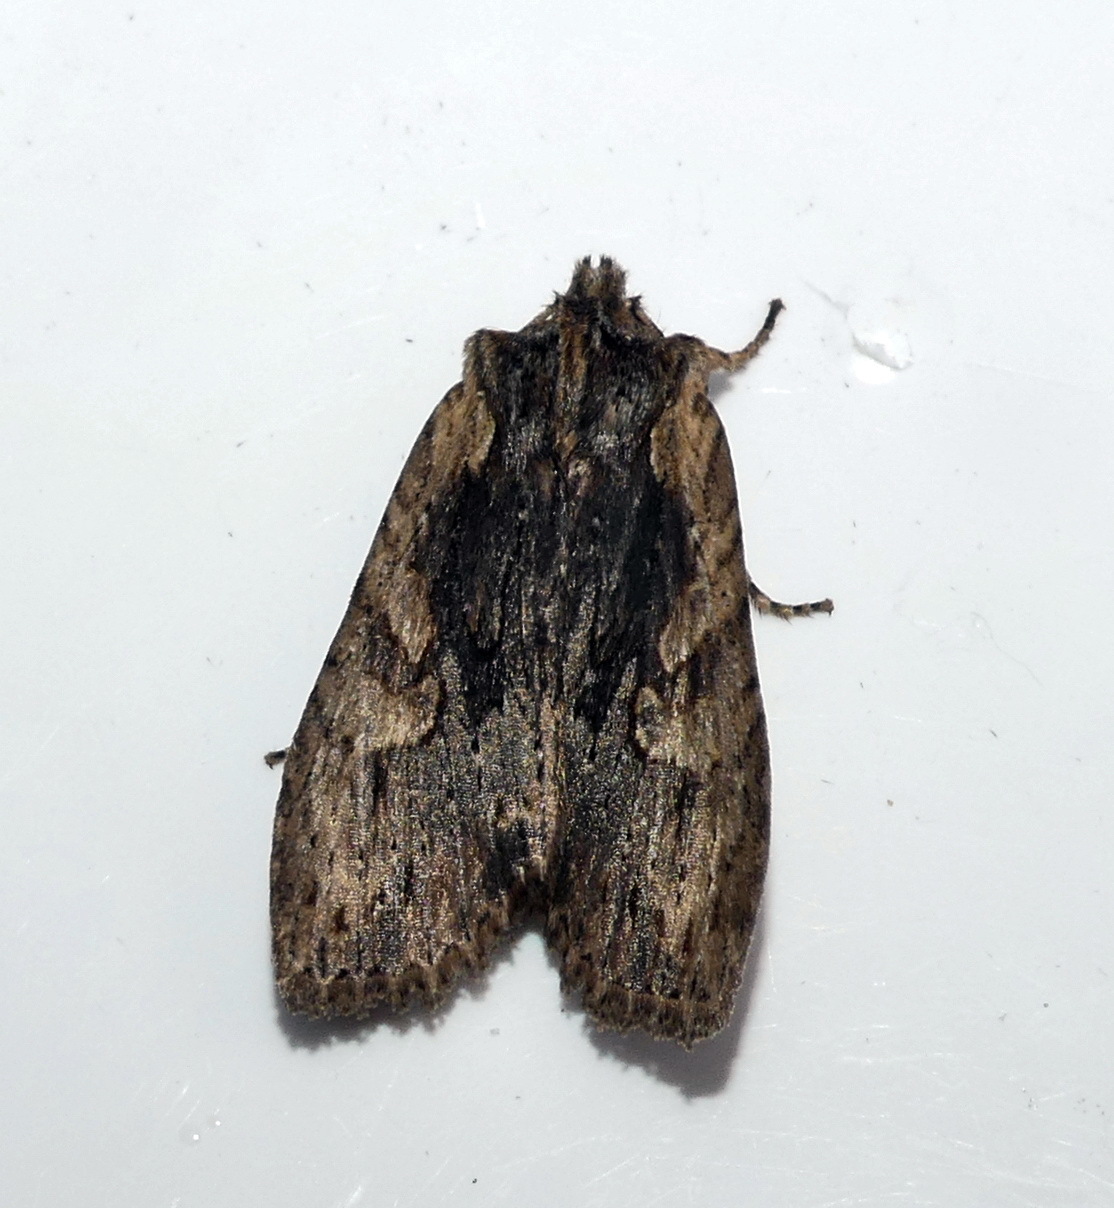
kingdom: Animalia
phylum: Arthropoda
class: Insecta
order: Lepidoptera
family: Noctuidae
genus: Lithophane
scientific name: Lithophane hemina
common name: Hemina pinion moth
